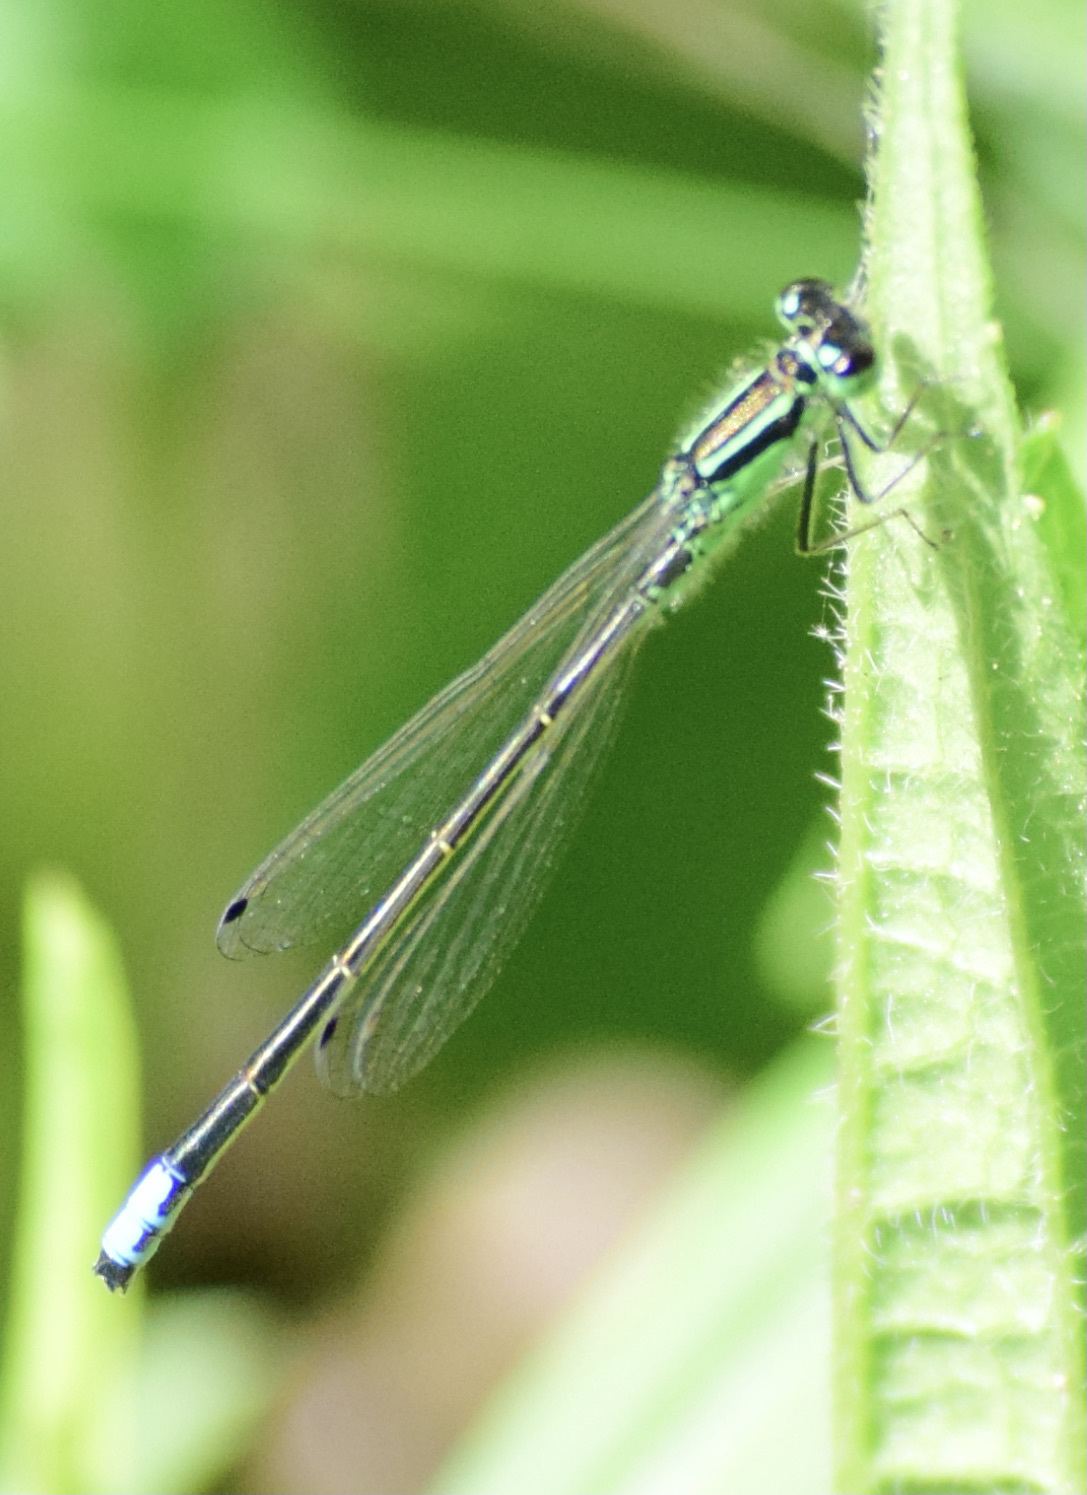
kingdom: Animalia
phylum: Arthropoda
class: Insecta
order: Odonata
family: Coenagrionidae
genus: Ischnura
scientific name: Ischnura verticalis
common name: Eastern forktail
